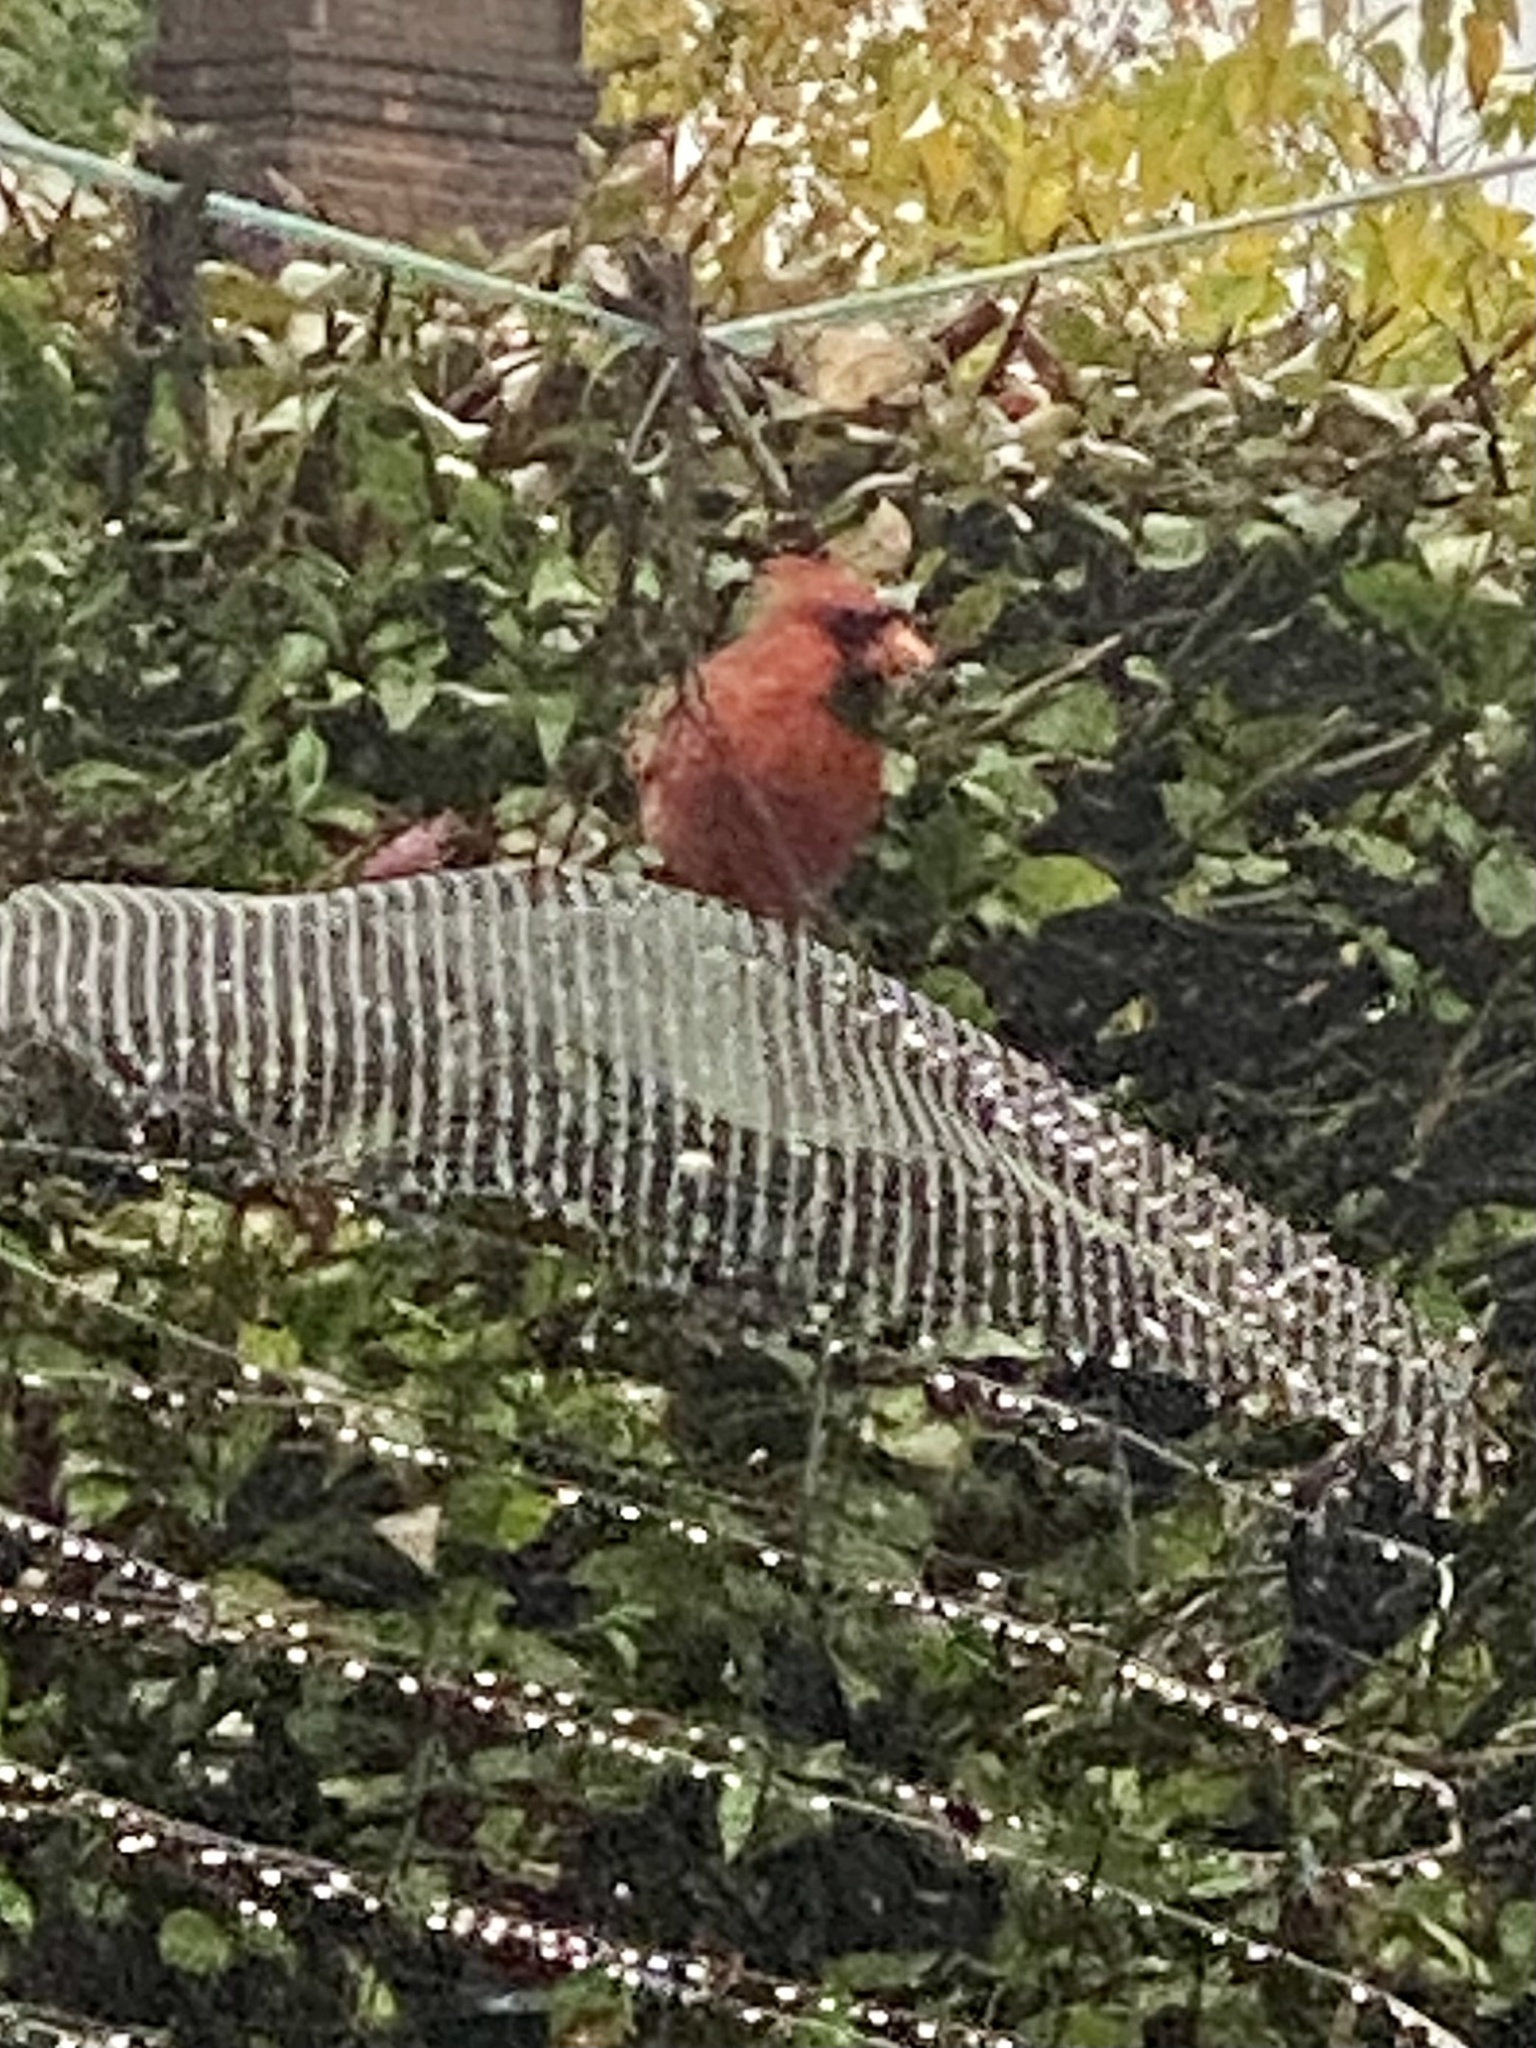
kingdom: Animalia
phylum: Chordata
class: Aves
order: Passeriformes
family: Cardinalidae
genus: Cardinalis
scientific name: Cardinalis cardinalis
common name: Northern cardinal
